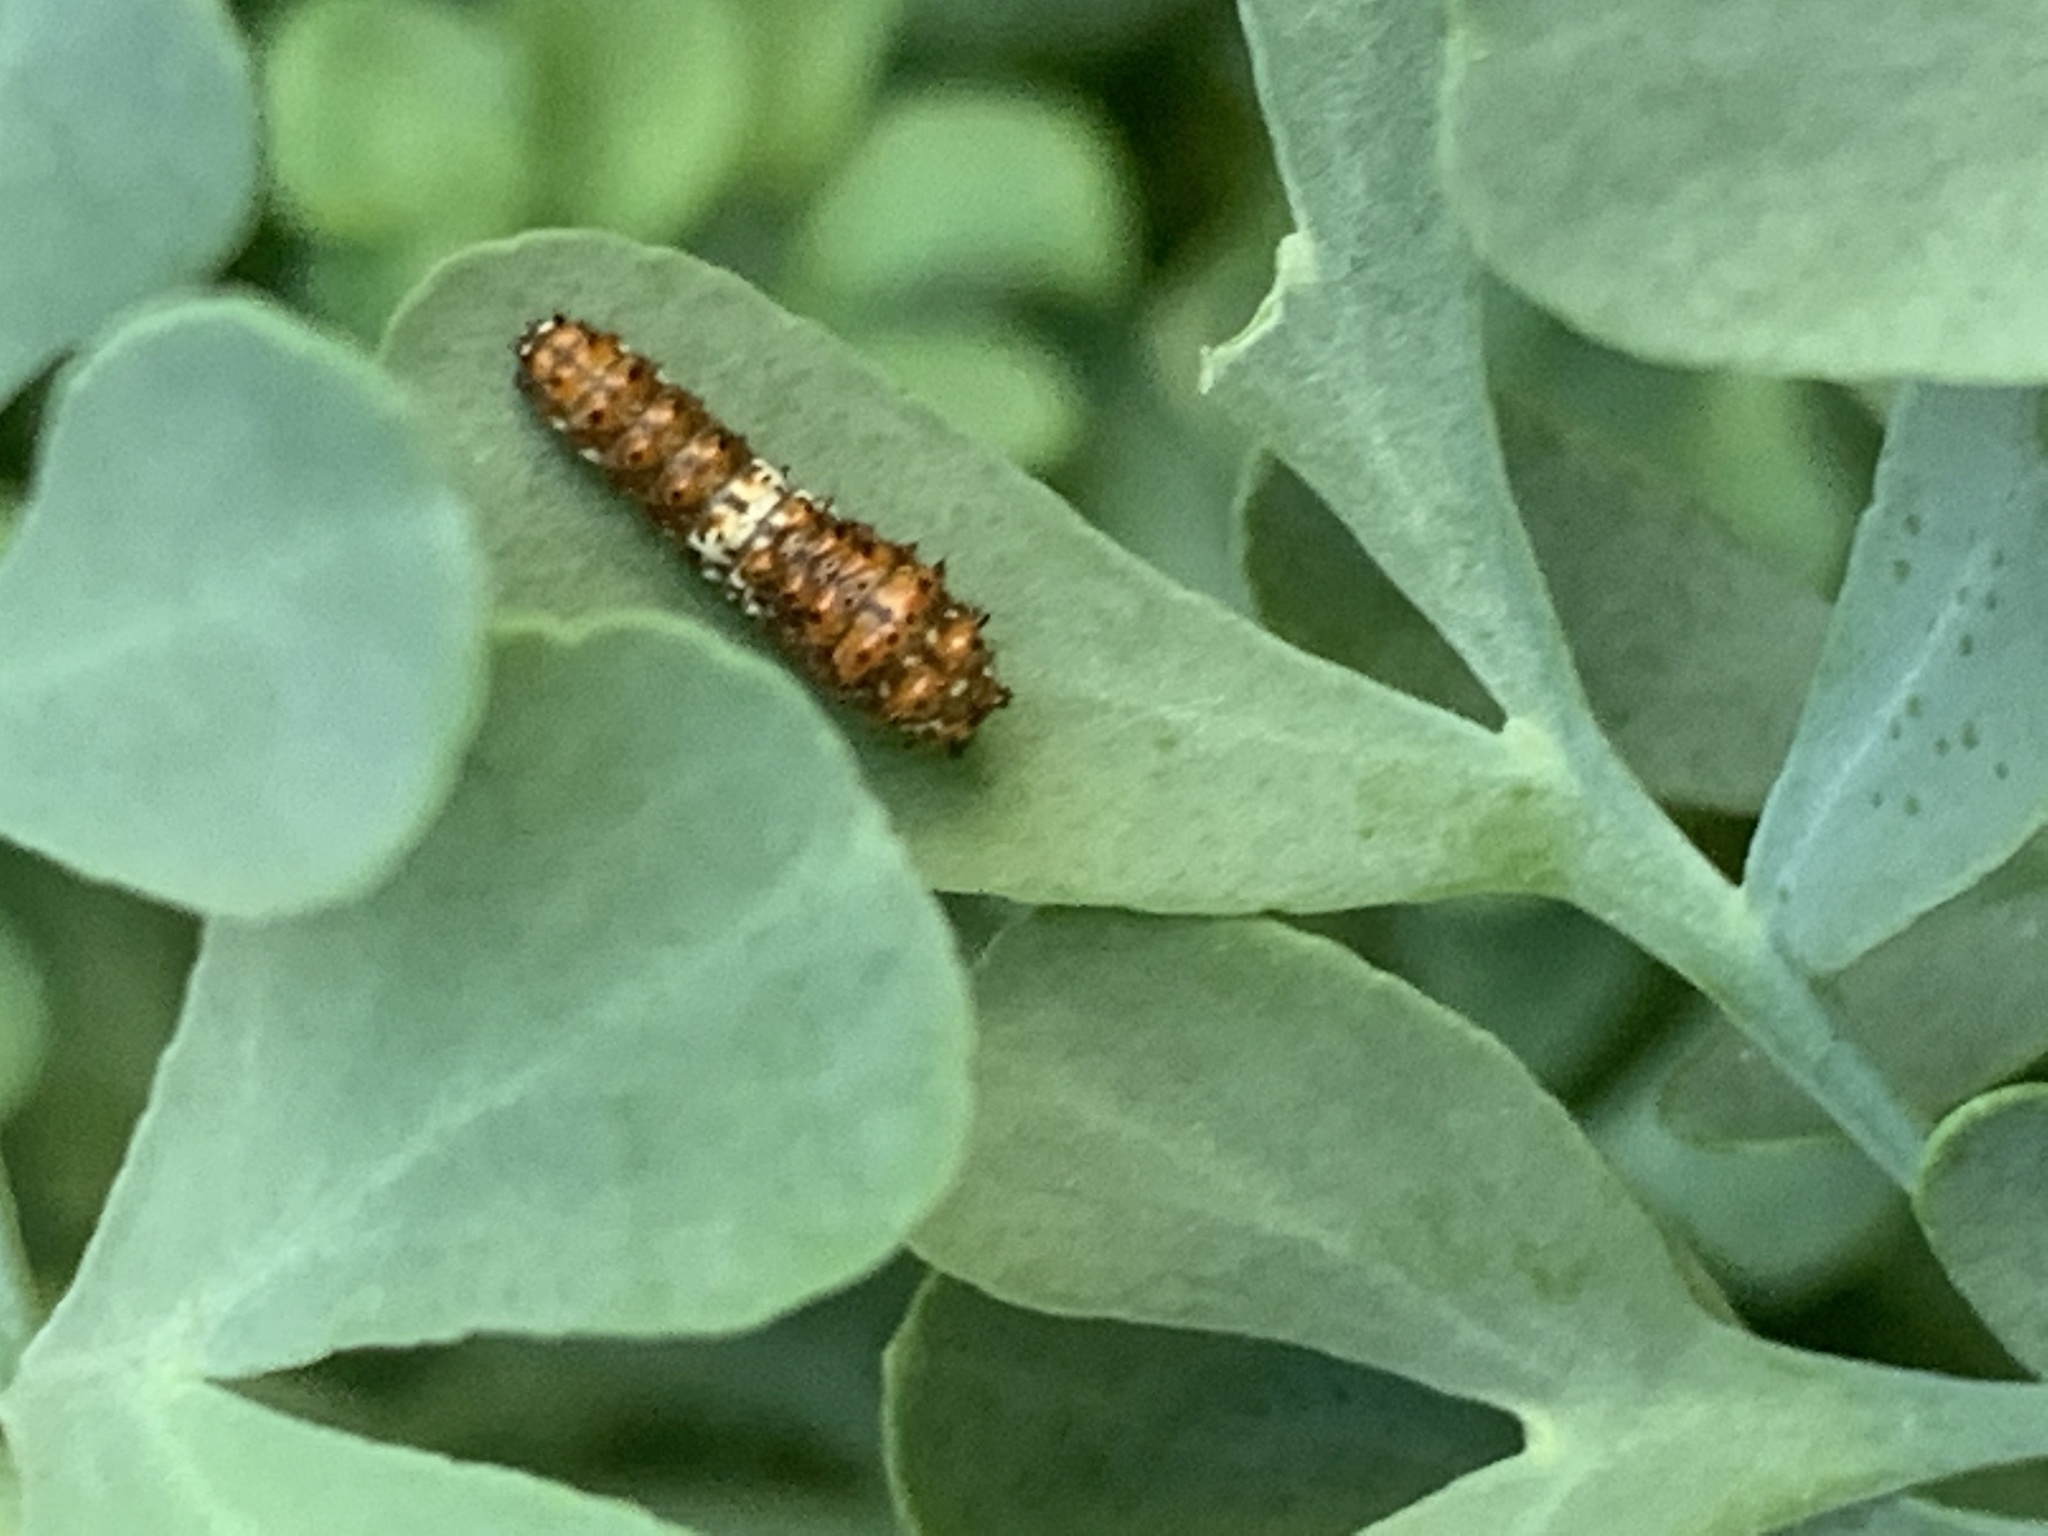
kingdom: Animalia
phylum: Arthropoda
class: Insecta
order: Lepidoptera
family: Papilionidae
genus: Papilio
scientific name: Papilio polyxenes
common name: Black swallowtail
